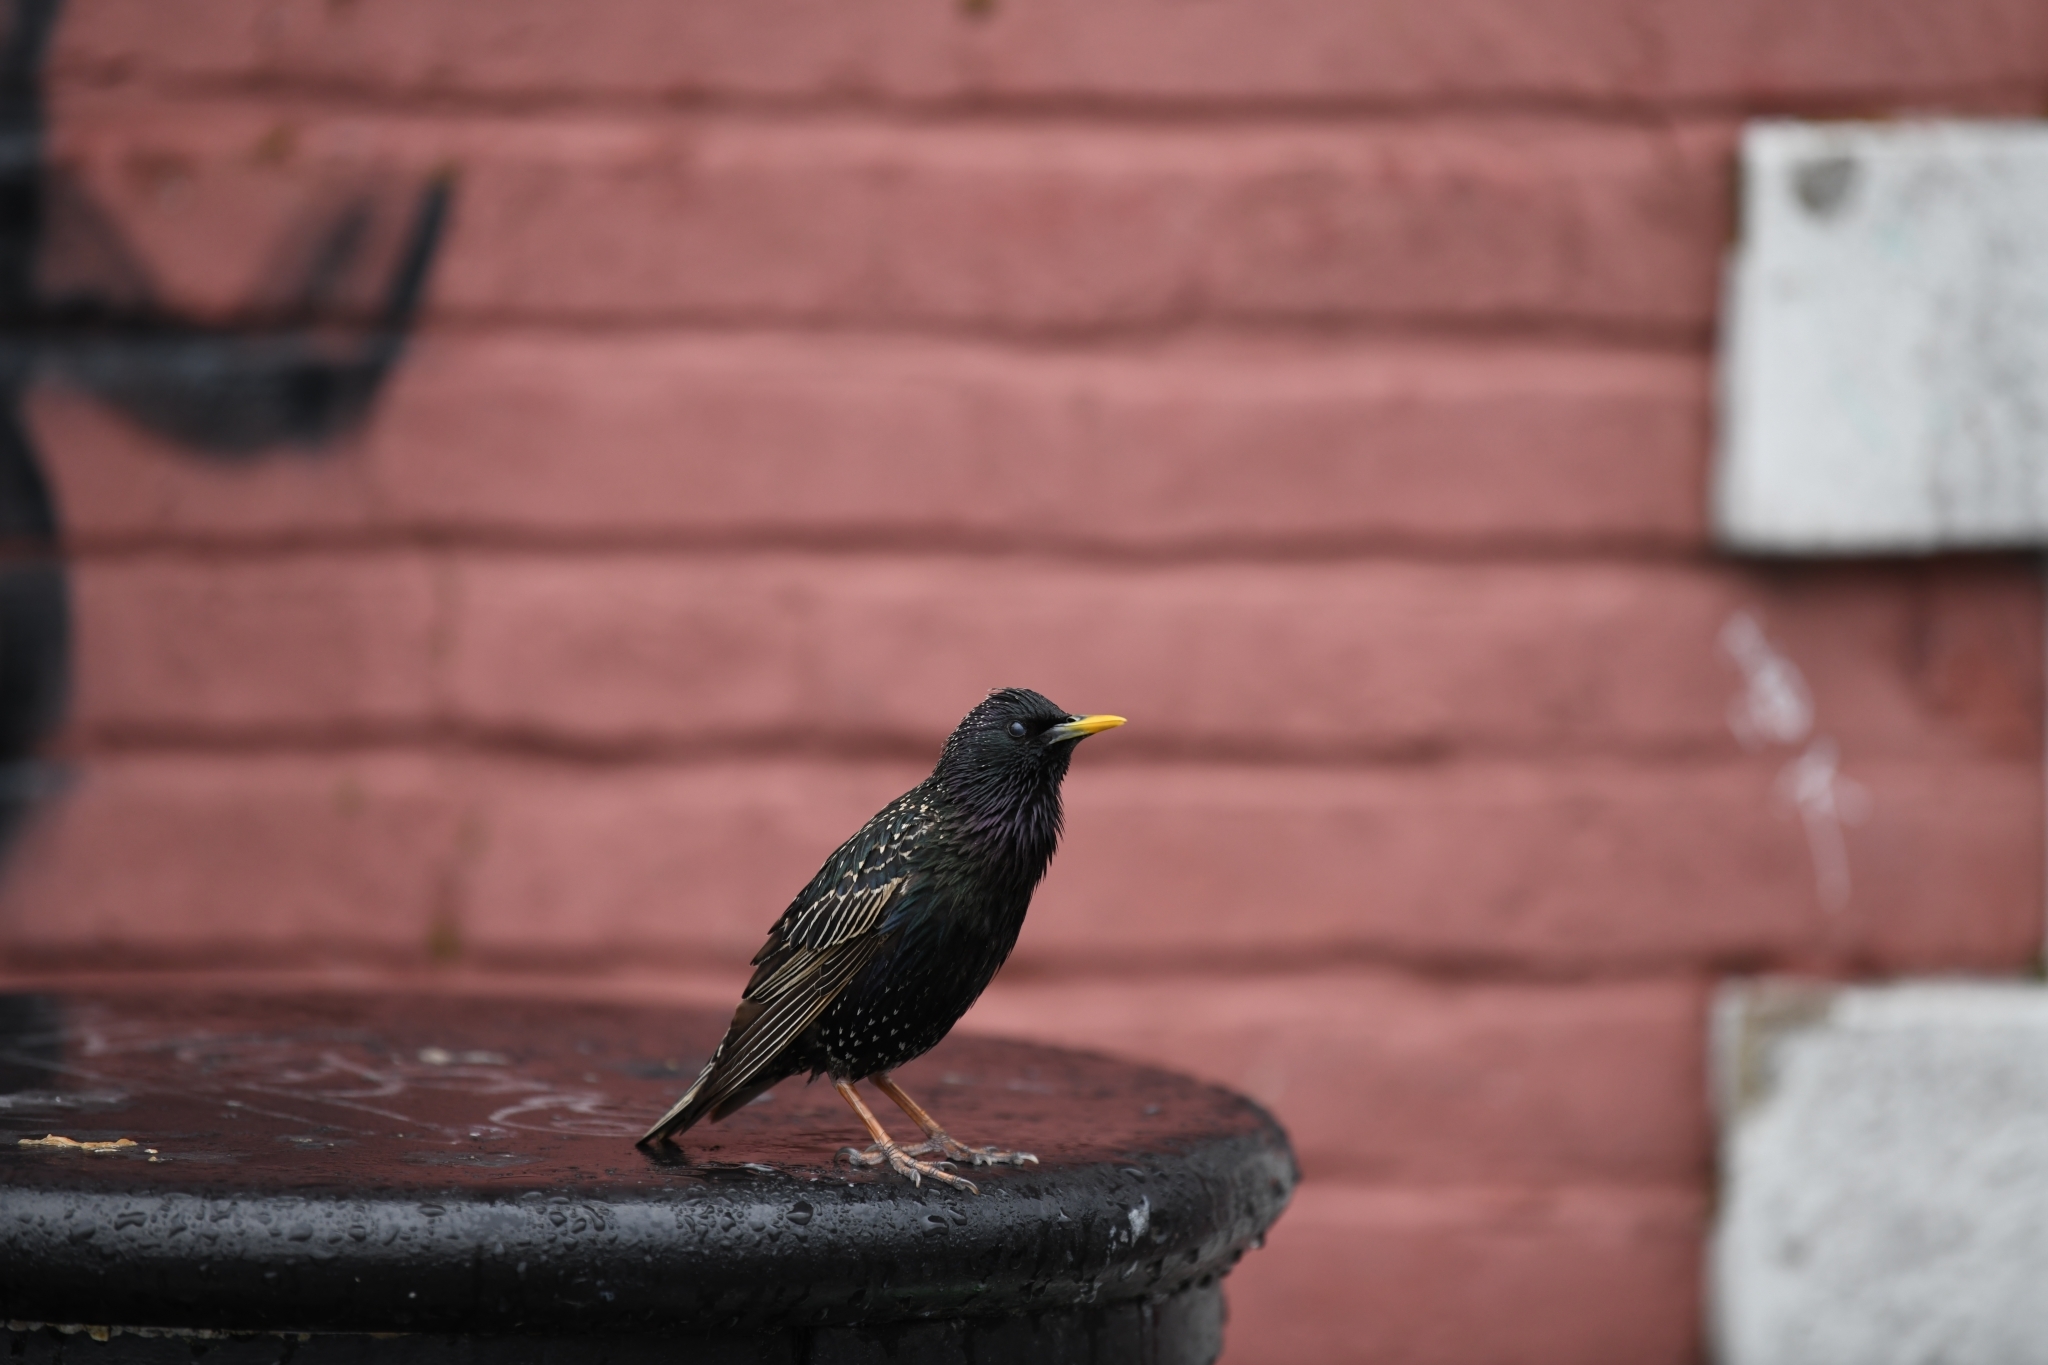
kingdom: Animalia
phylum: Chordata
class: Aves
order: Passeriformes
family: Sturnidae
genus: Sturnus
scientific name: Sturnus vulgaris
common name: Common starling
